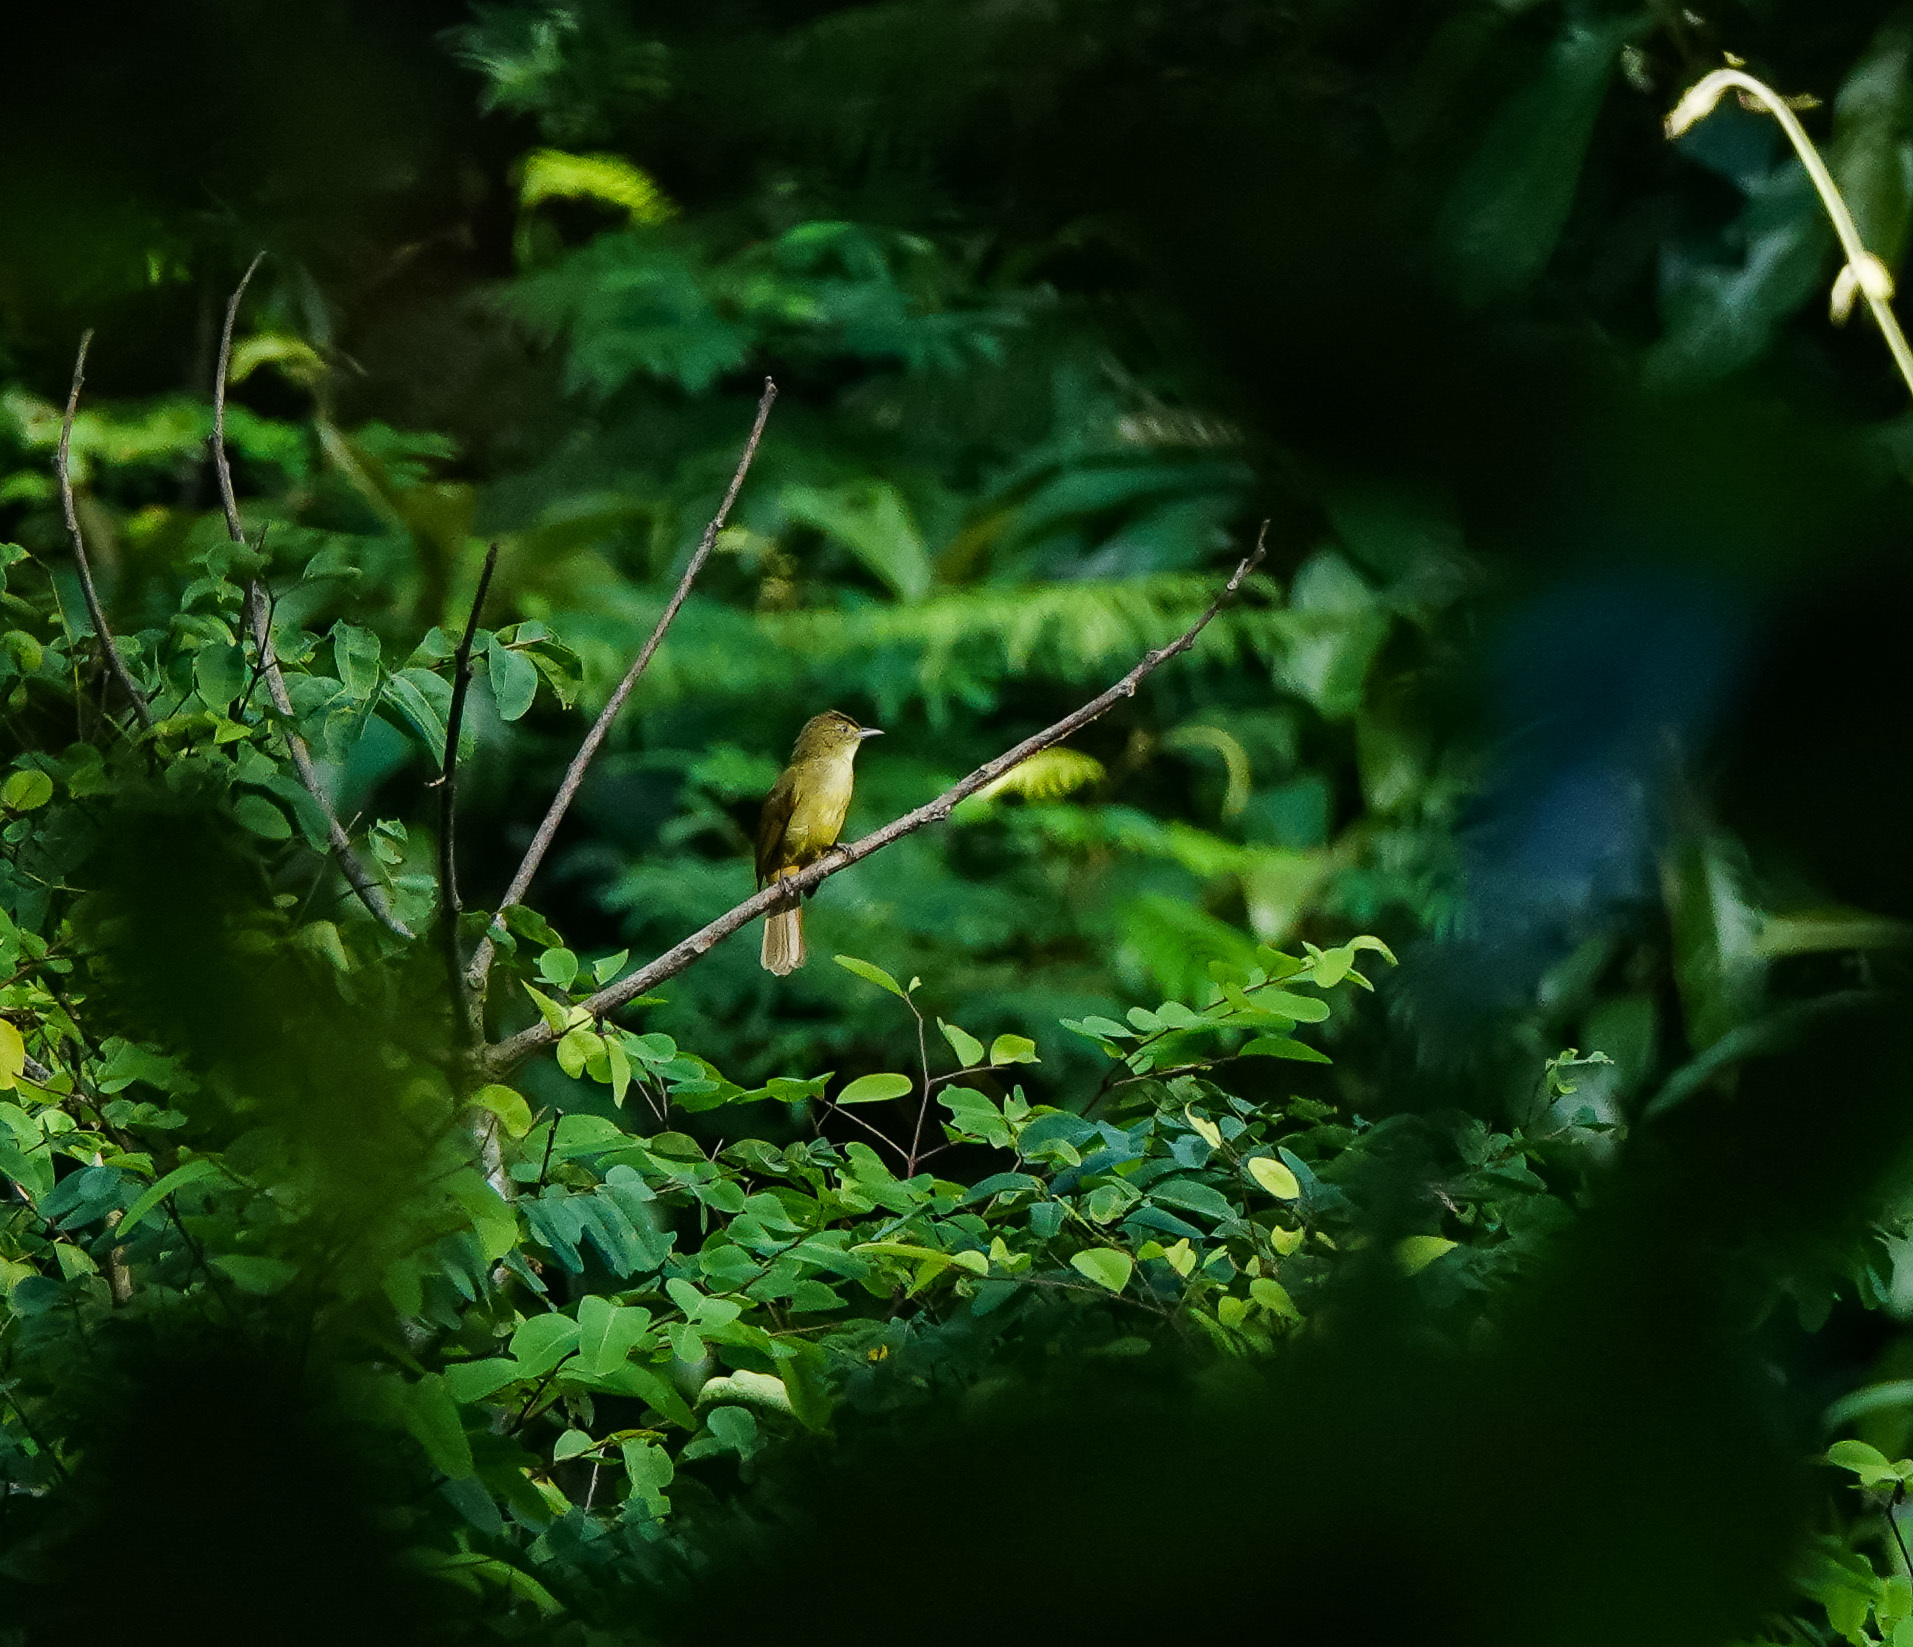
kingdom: Animalia
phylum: Chordata
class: Aves
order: Passeriformes
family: Pycnonotidae
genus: Iole
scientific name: Iole virescens
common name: Olive bulbul
